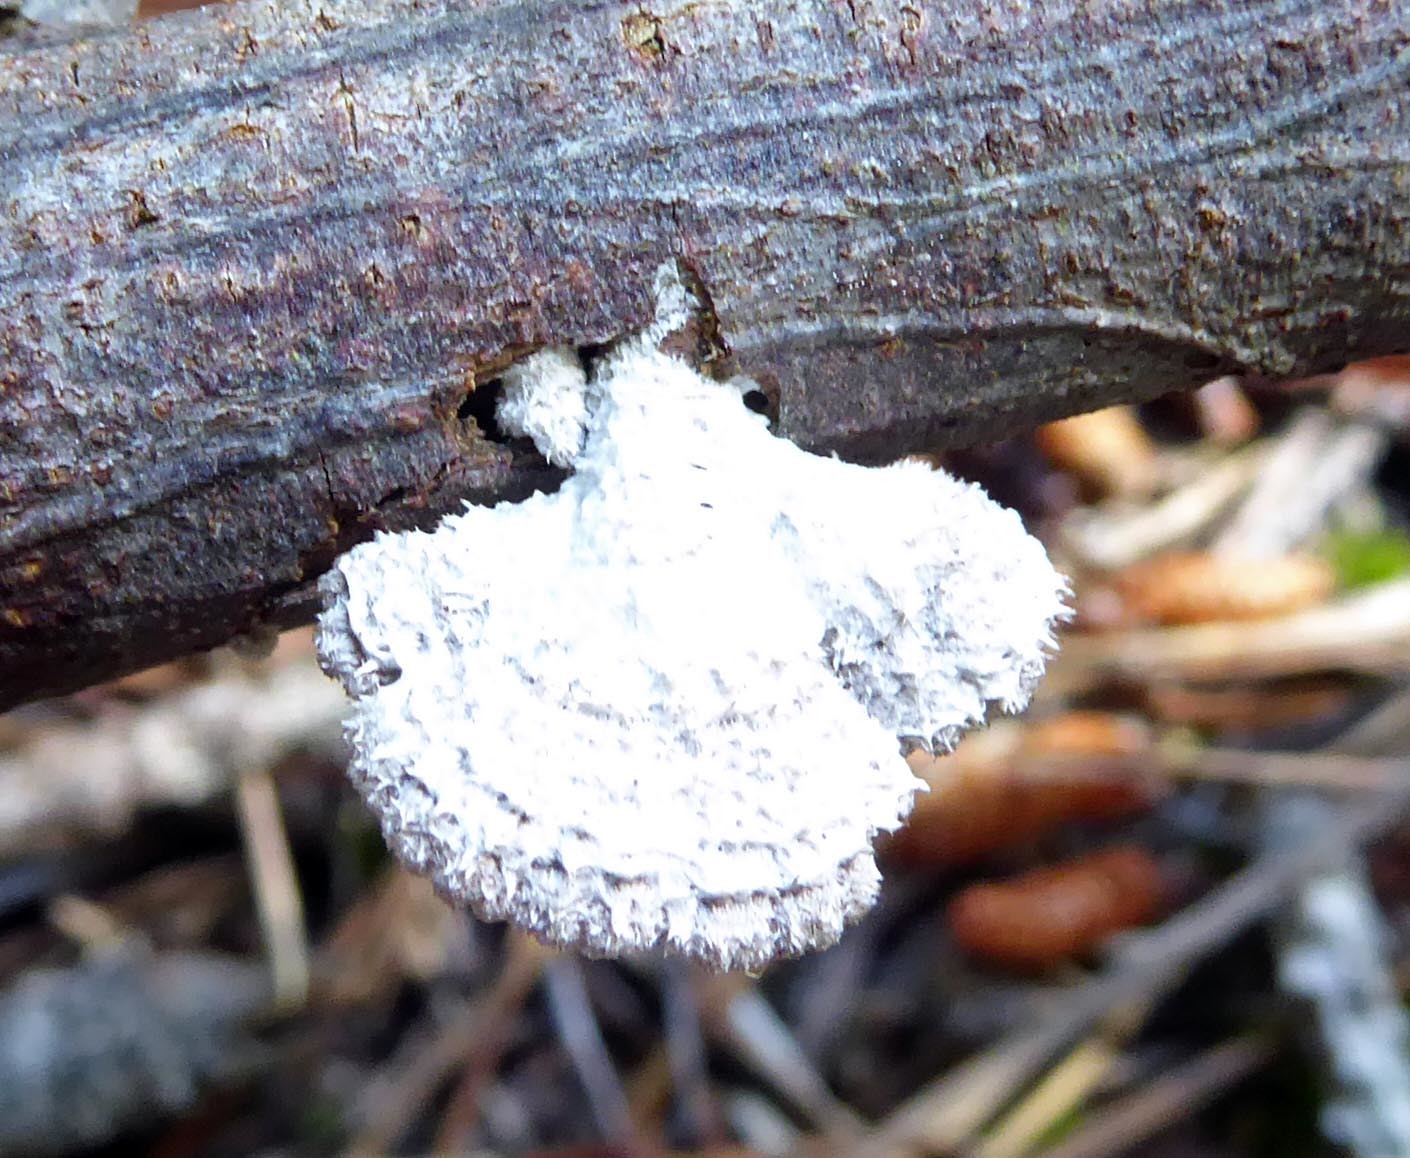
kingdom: Fungi
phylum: Basidiomycota
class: Agaricomycetes
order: Agaricales
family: Schizophyllaceae
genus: Schizophyllum
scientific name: Schizophyllum commune
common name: Common porecrust
